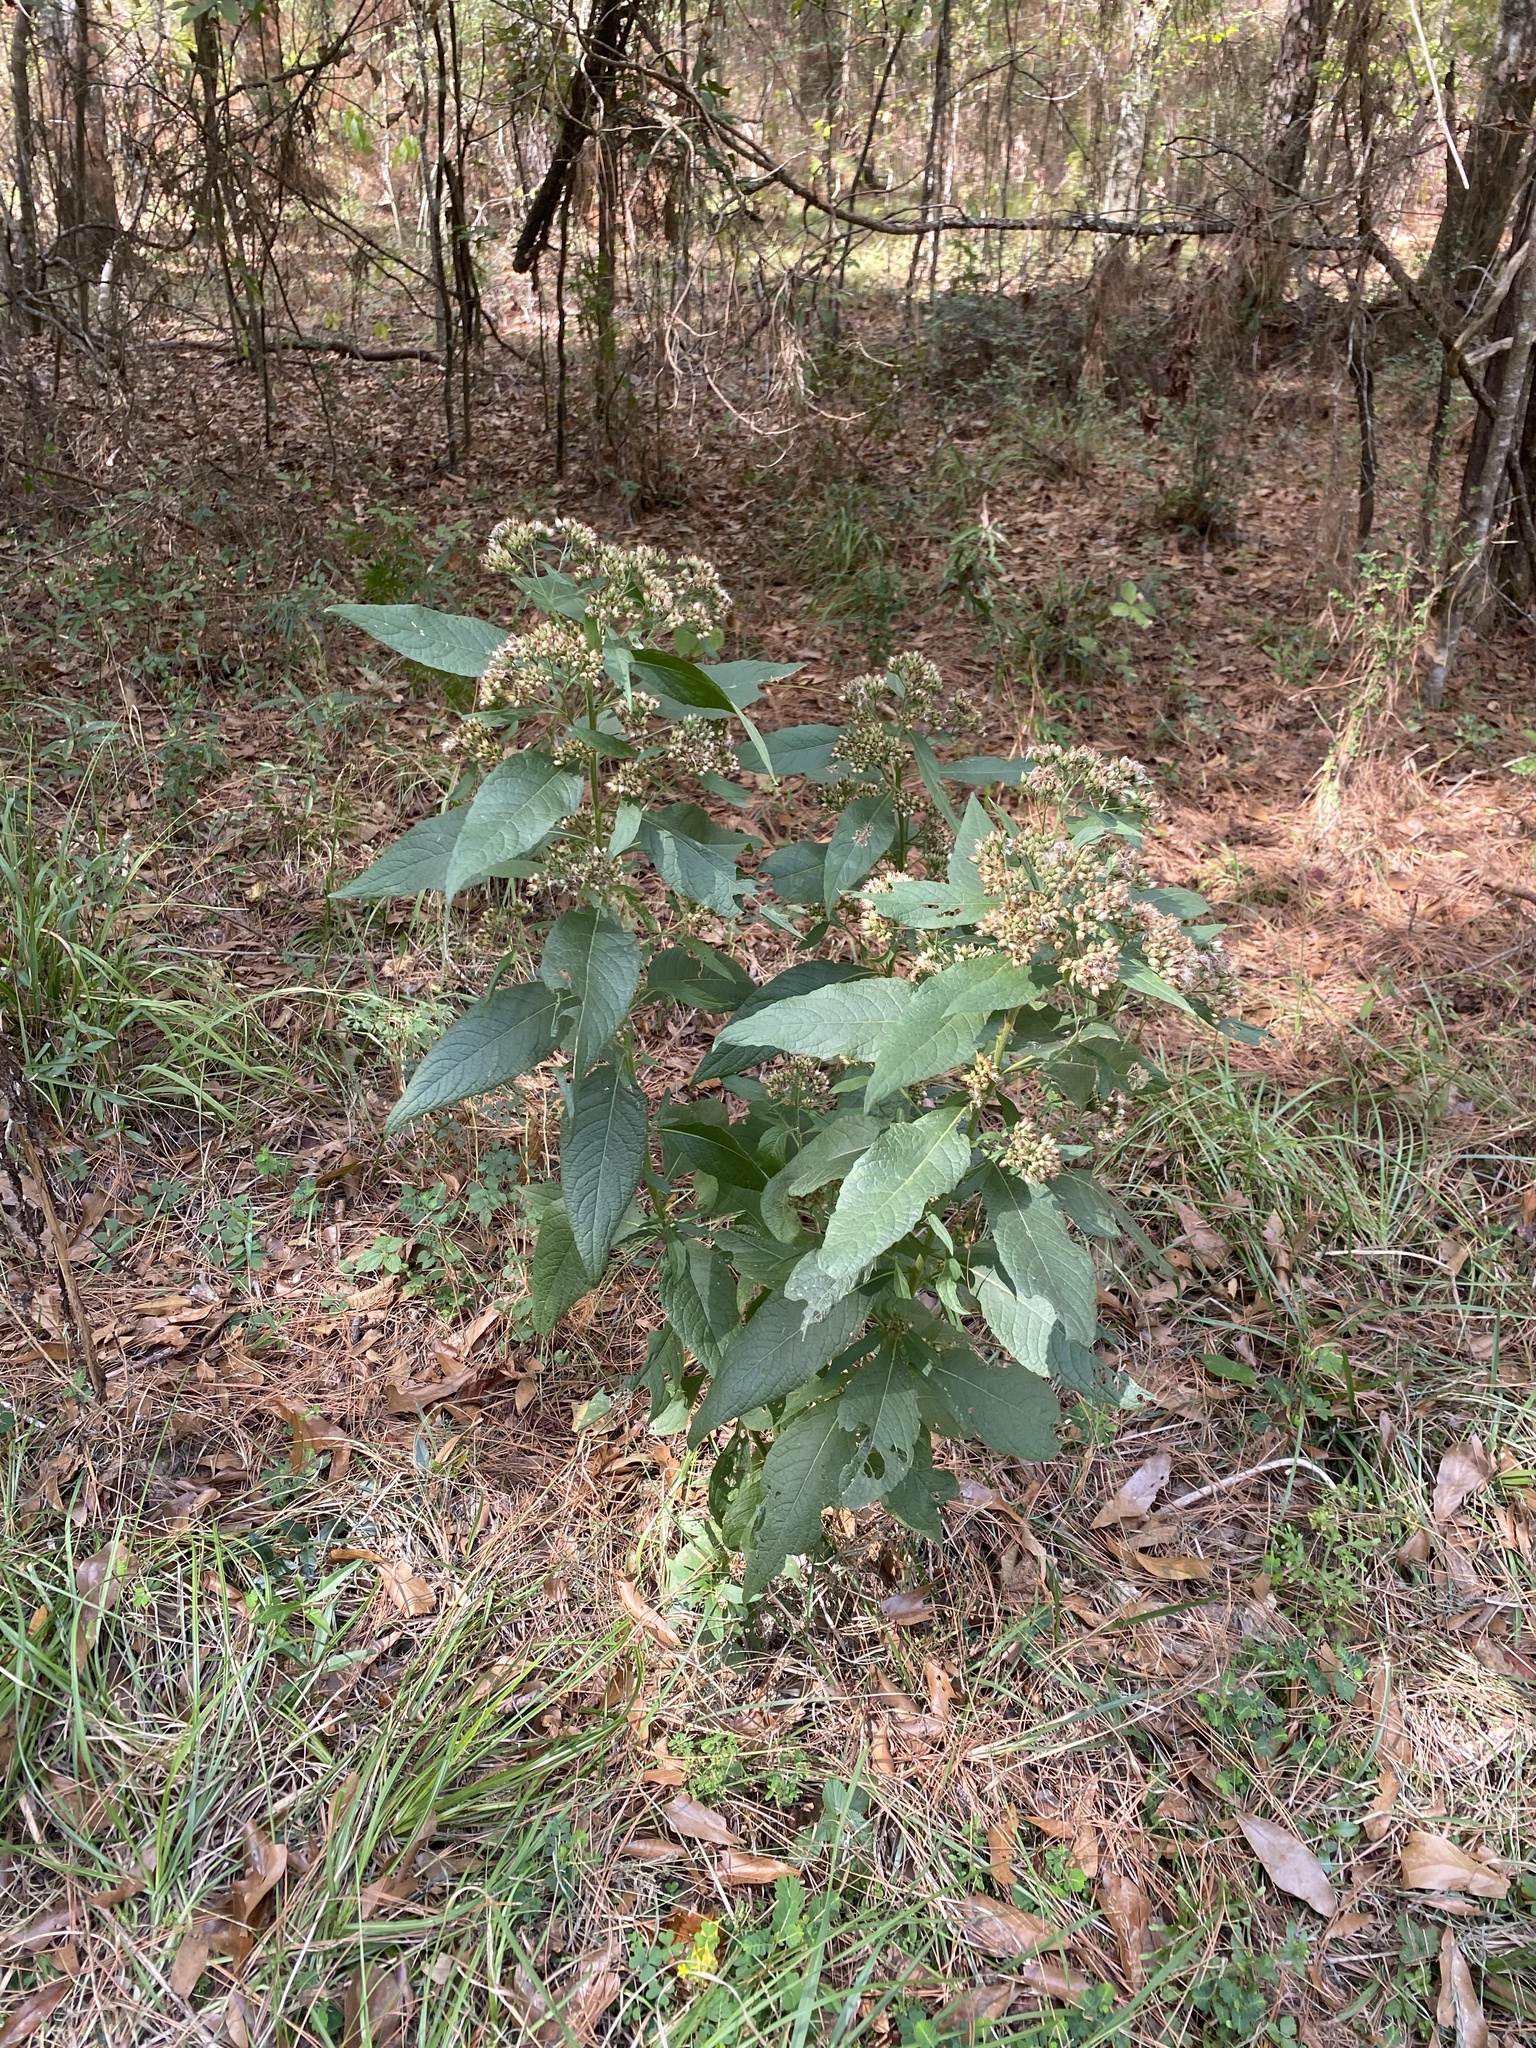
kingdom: Plantae
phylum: Tracheophyta
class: Magnoliopsida
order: Asterales
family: Asteraceae
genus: Pluchea
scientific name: Pluchea camphorata
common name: Camphor pluchea
